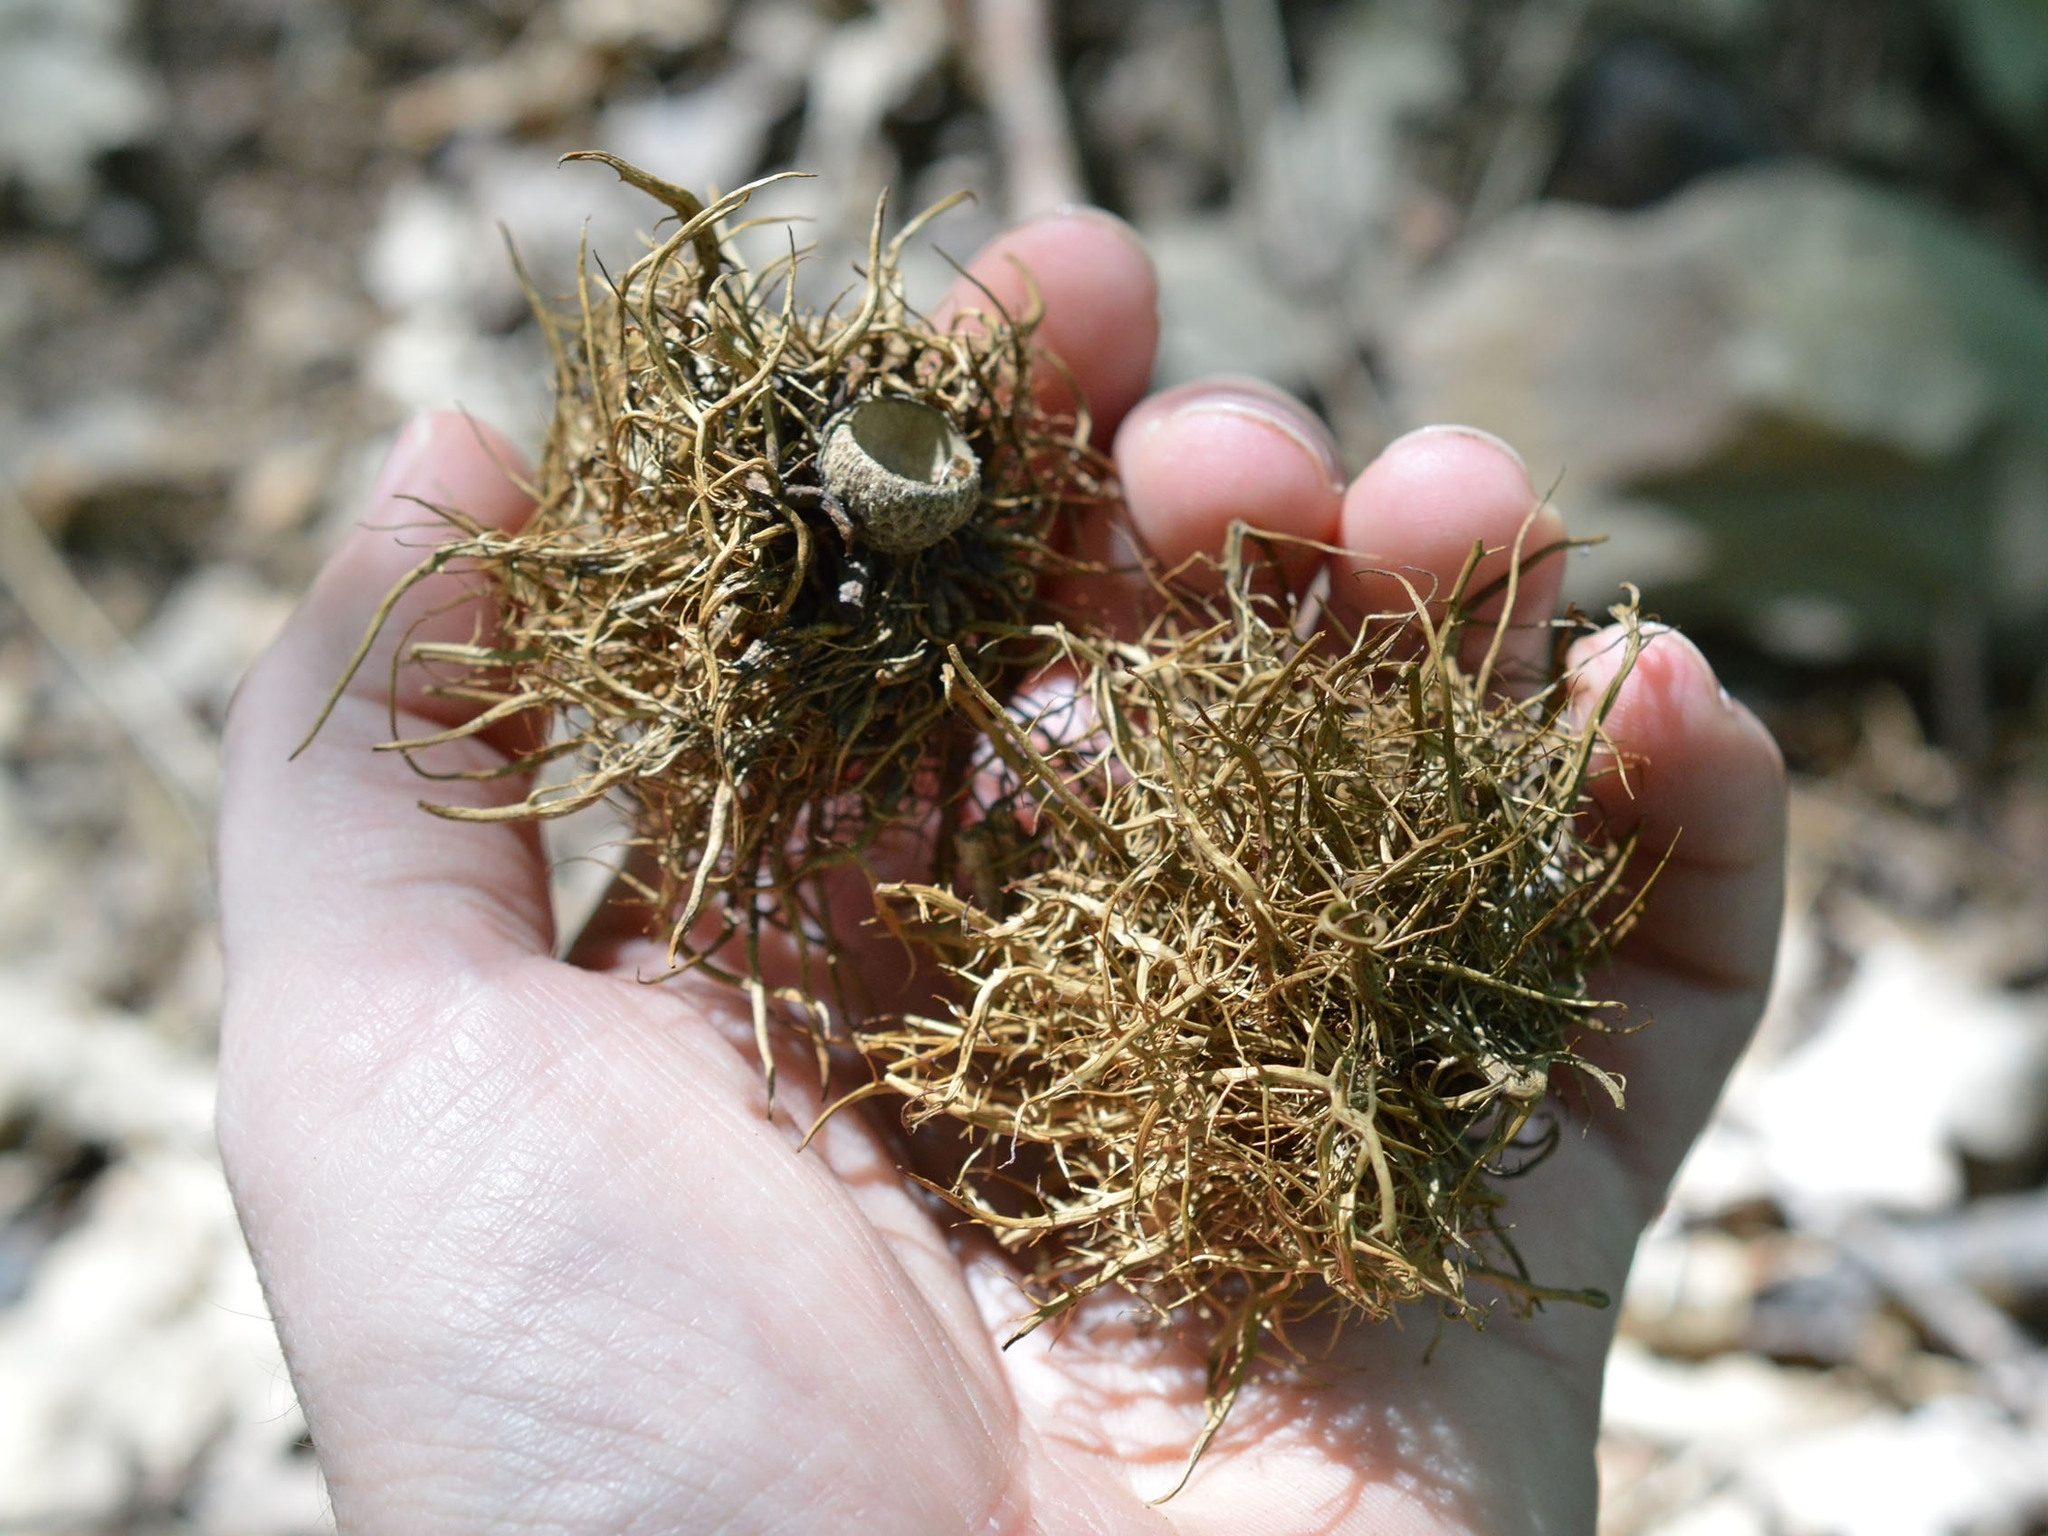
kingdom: Animalia
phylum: Arthropoda
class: Insecta
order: Hymenoptera
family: Cynipidae
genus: Andricus
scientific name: Andricus caputmedusae
